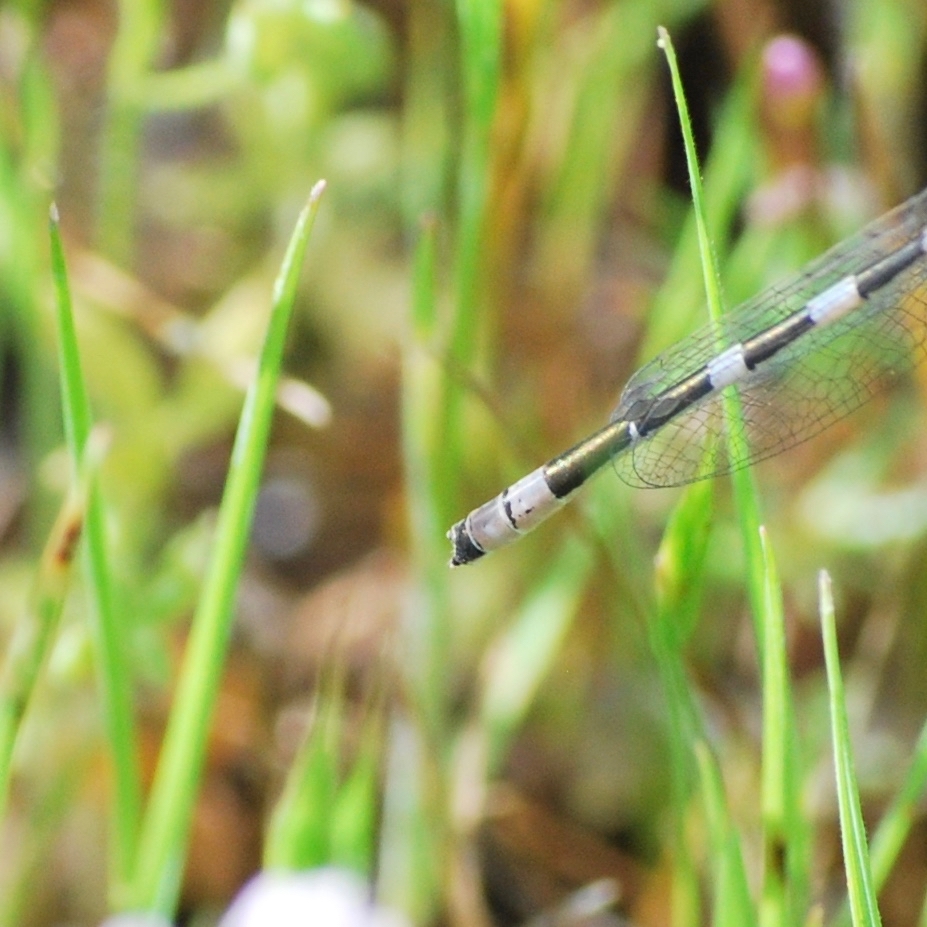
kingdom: Animalia
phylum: Arthropoda
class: Insecta
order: Odonata
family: Coenagrionidae
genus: Enallagma
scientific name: Enallagma carunculatum
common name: Tule bluet
